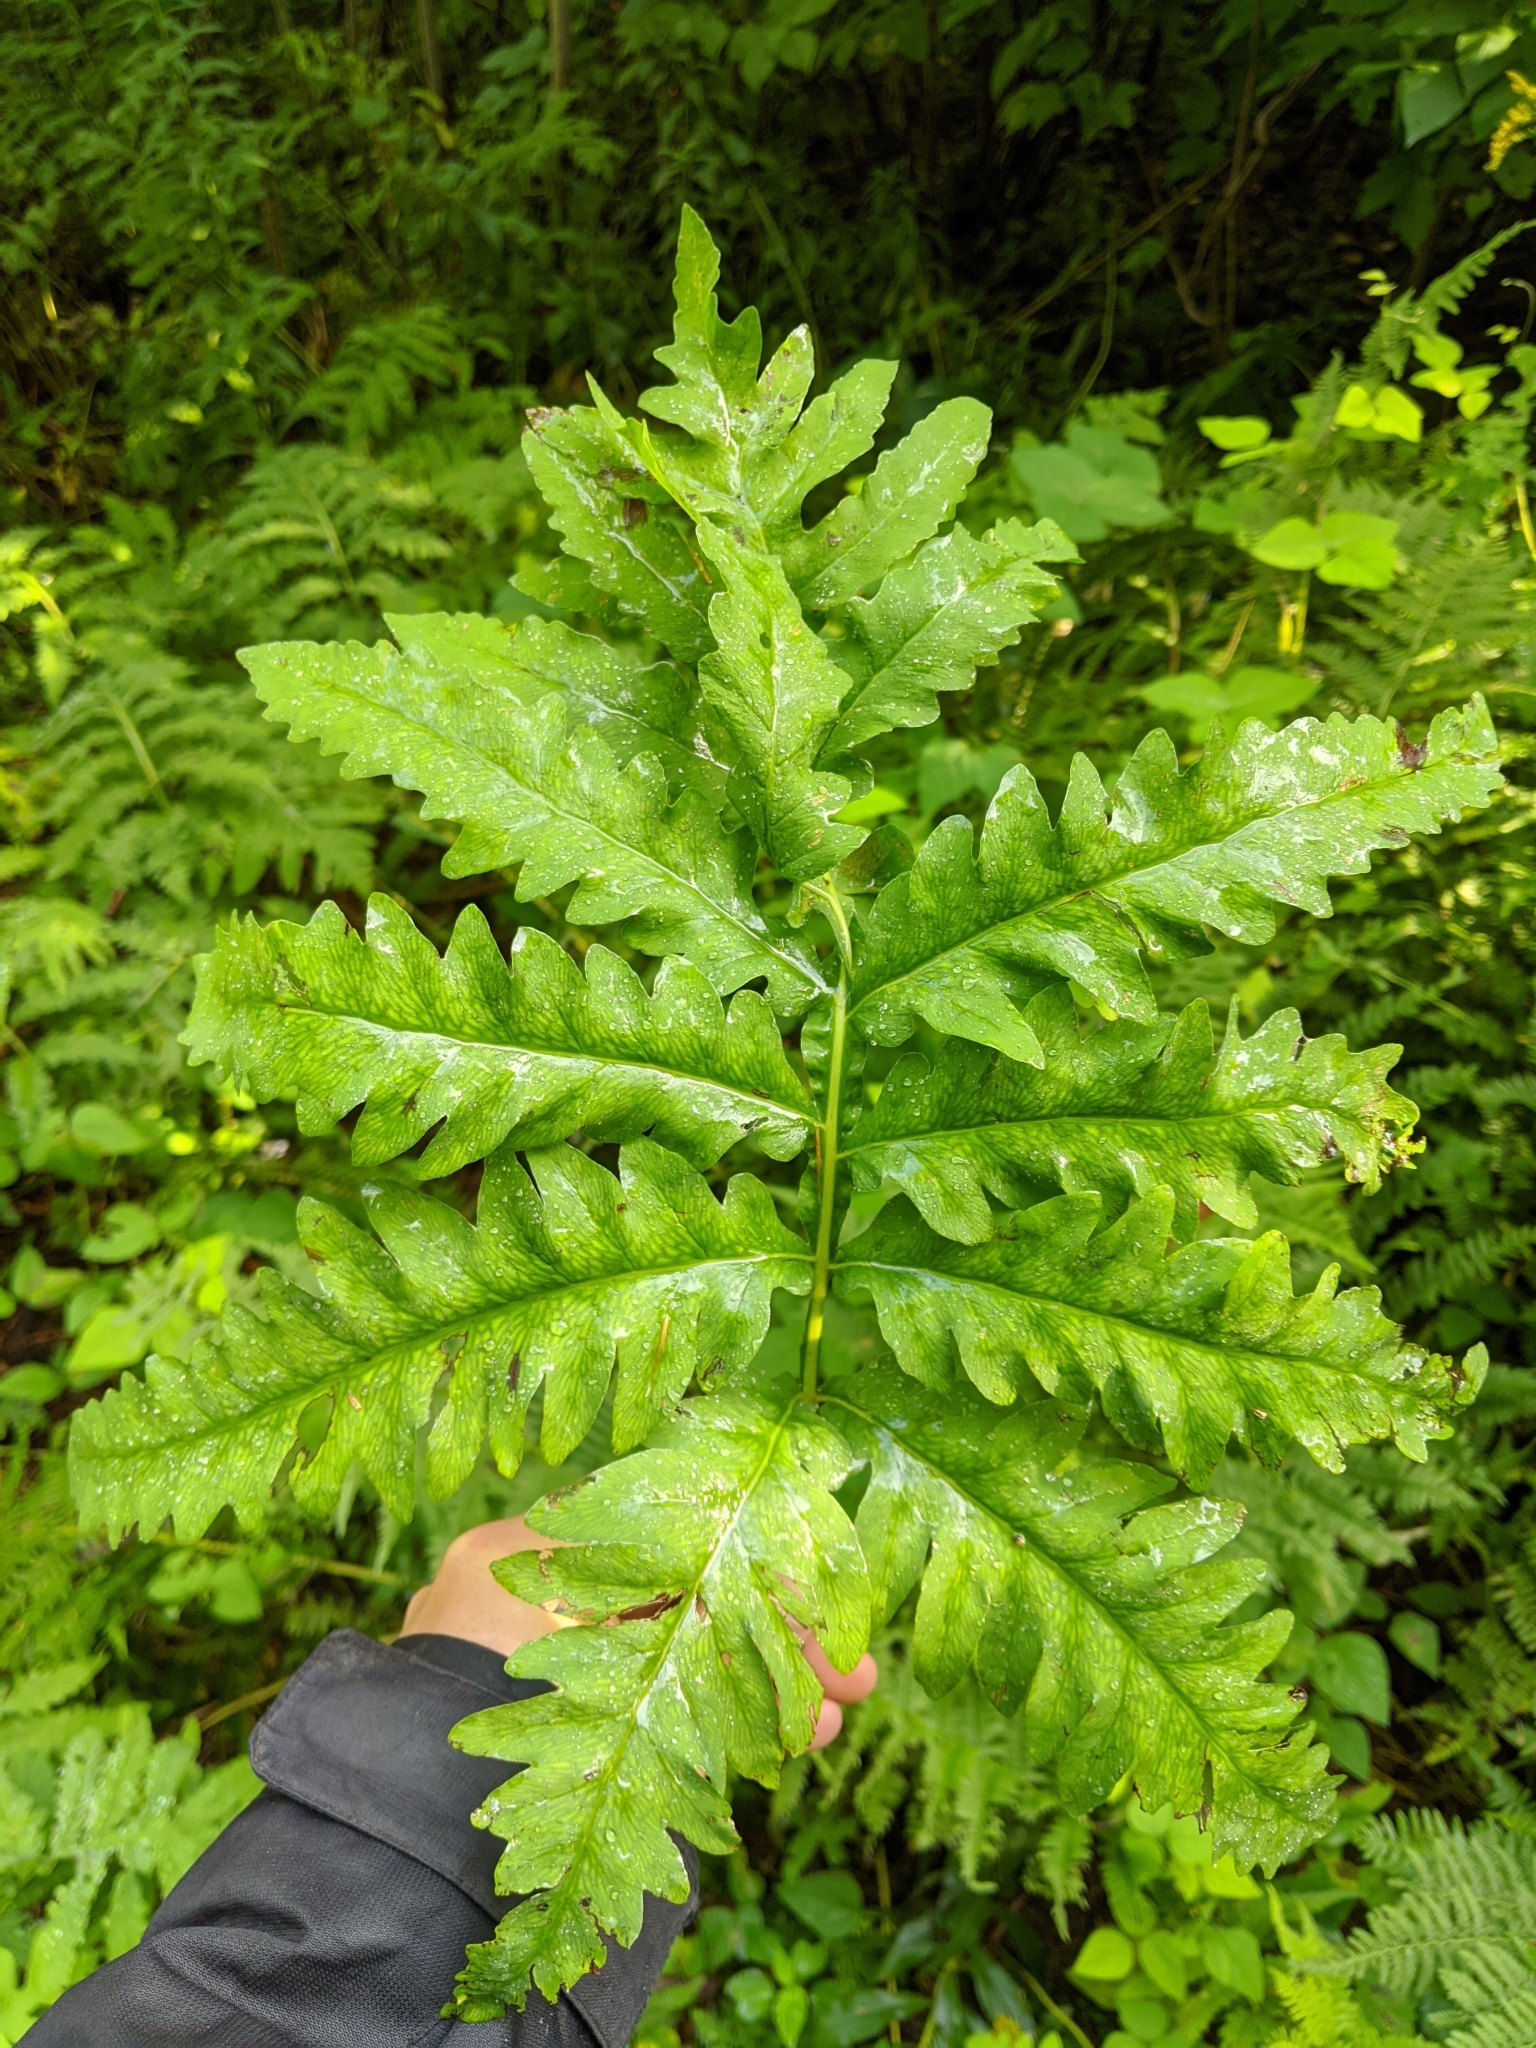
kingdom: Plantae
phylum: Tracheophyta
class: Polypodiopsida
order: Polypodiales
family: Onocleaceae
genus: Onoclea
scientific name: Onoclea sensibilis
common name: Sensitive fern
